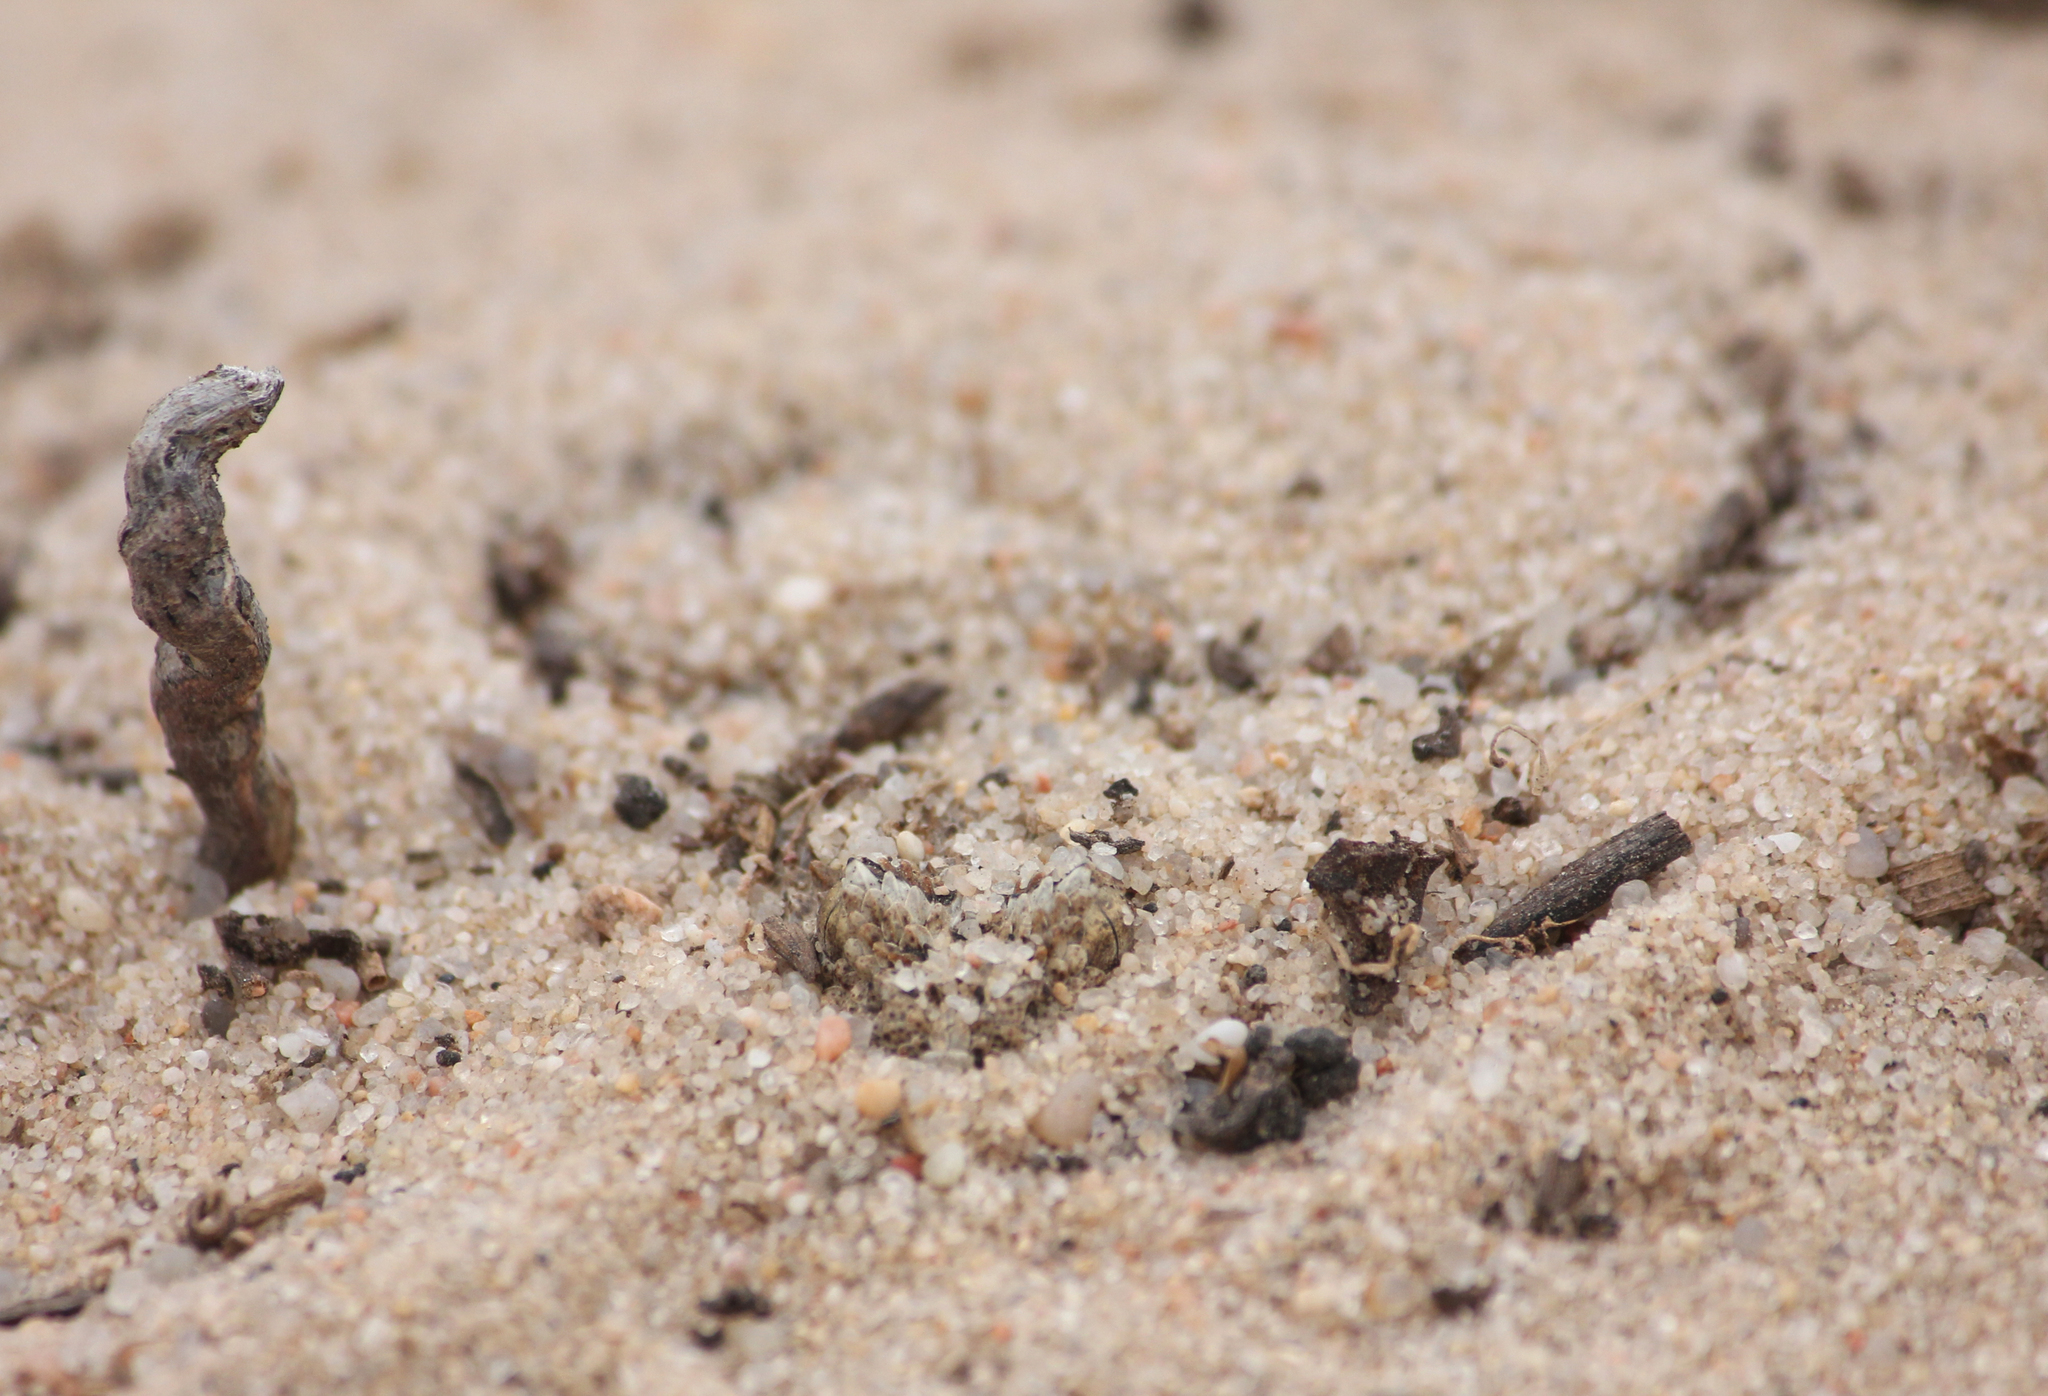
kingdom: Animalia
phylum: Chordata
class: Squamata
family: Viperidae
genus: Bitis
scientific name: Bitis schneideri
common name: Namaqua dwarf adder
